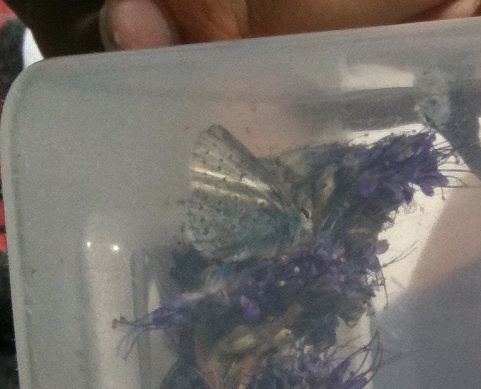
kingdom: Animalia
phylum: Arthropoda
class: Insecta
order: Lepidoptera
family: Lycaenidae
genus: Icaricia
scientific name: Icaricia saepiolus
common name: Greenish blue
